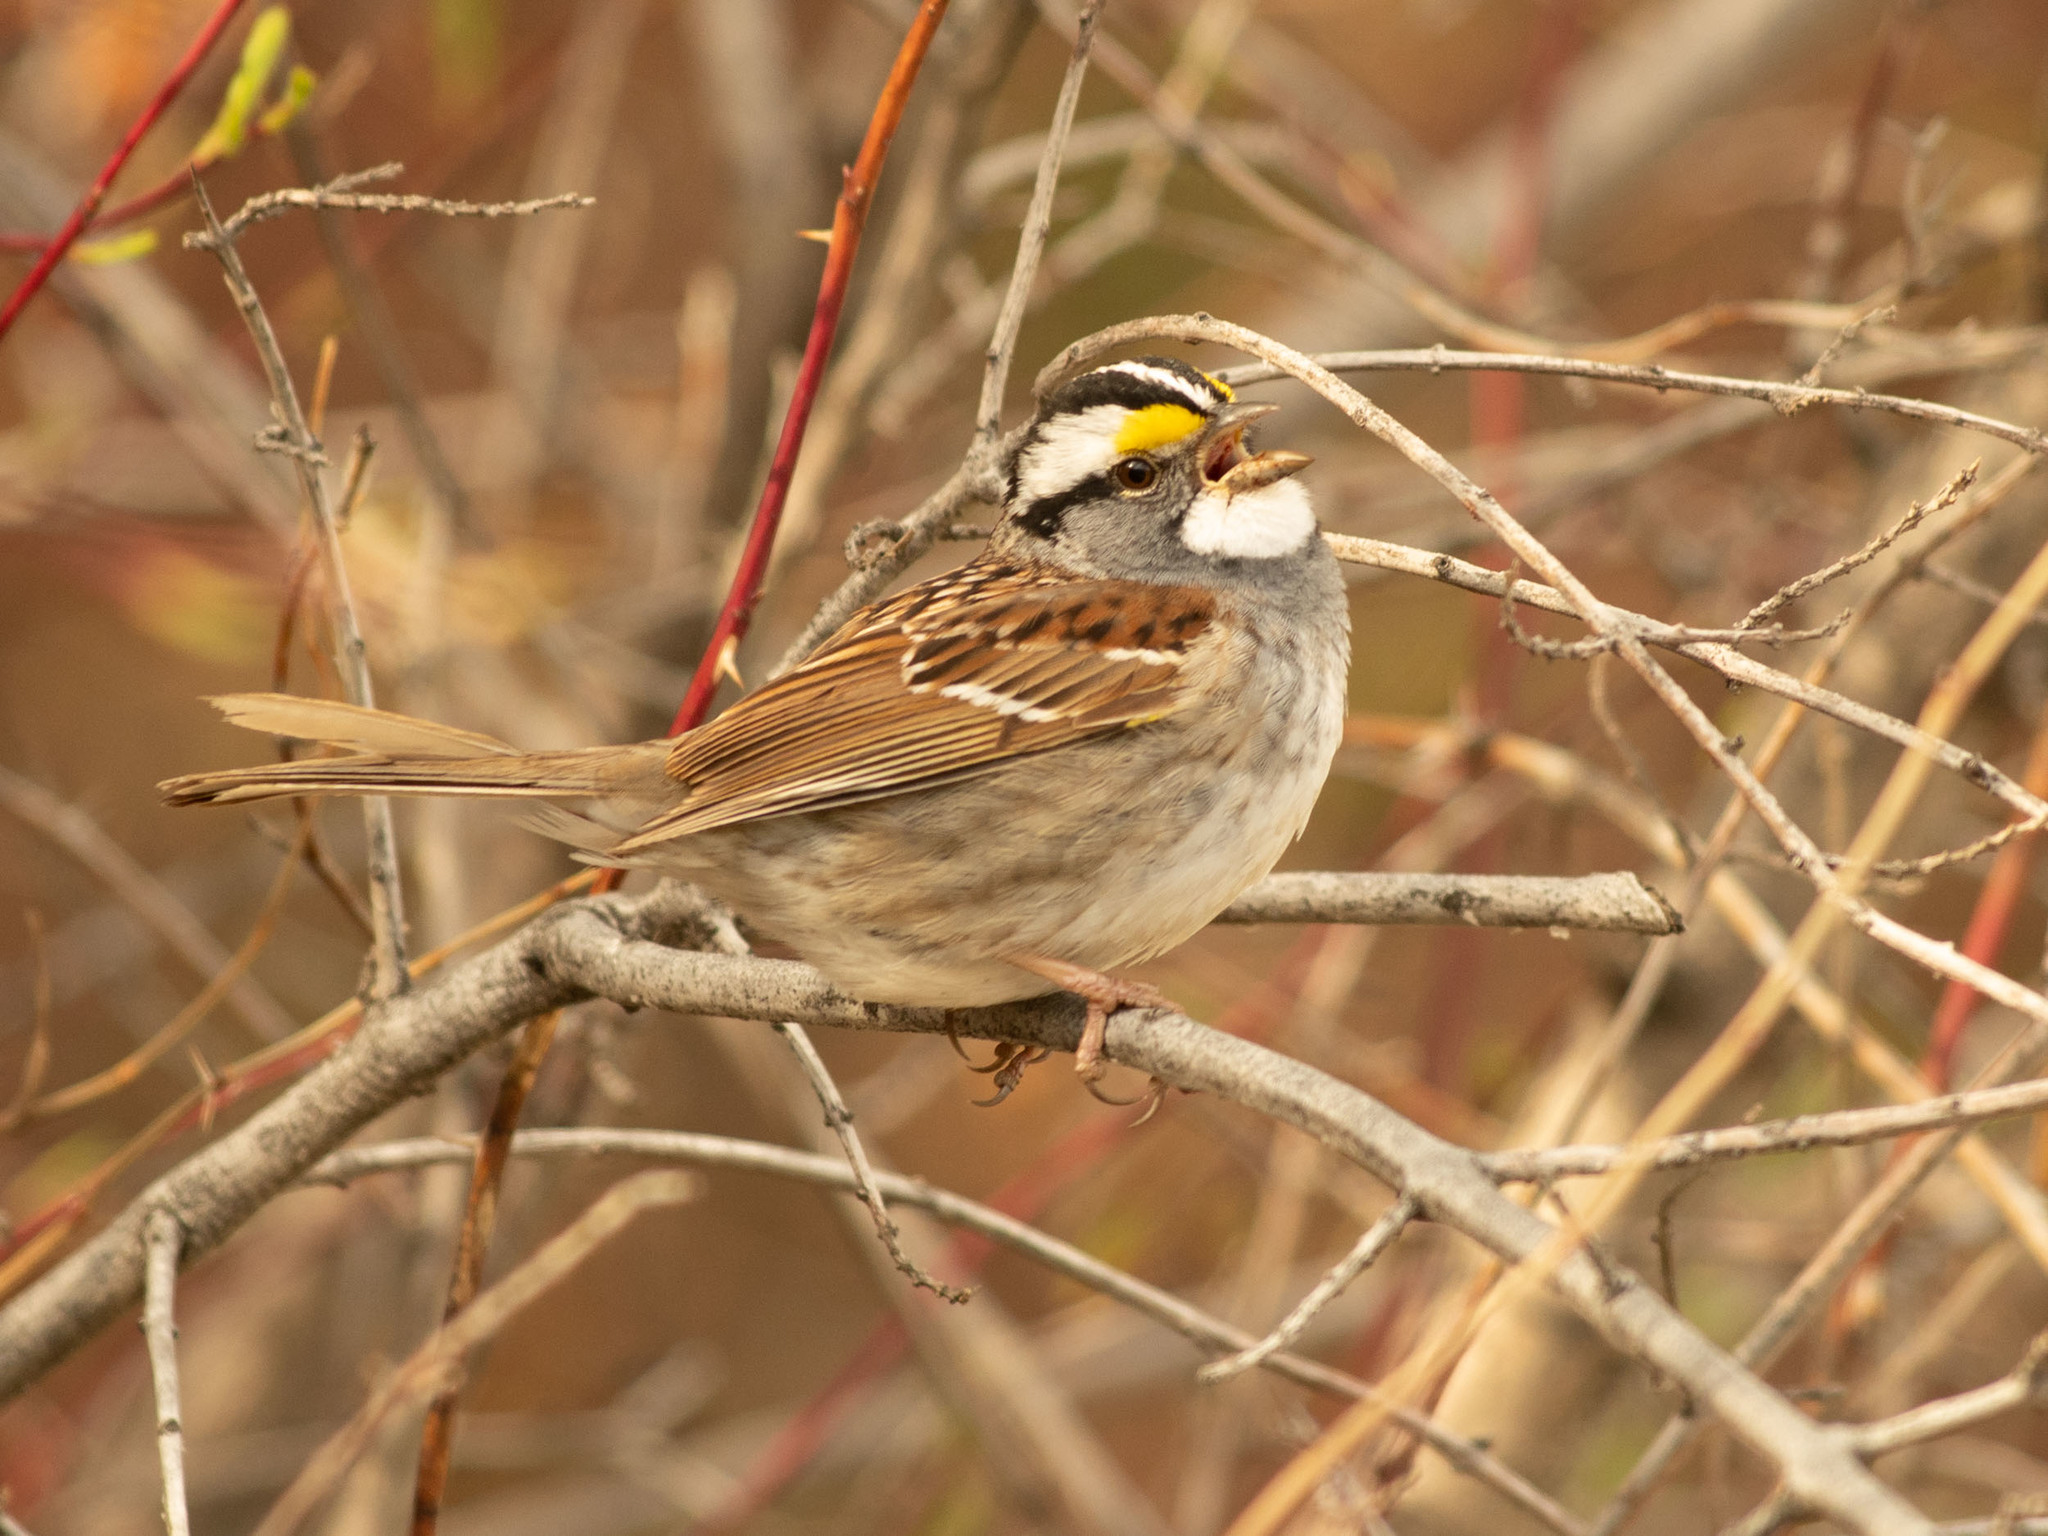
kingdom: Animalia
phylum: Chordata
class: Aves
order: Passeriformes
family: Passerellidae
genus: Zonotrichia
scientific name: Zonotrichia albicollis
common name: White-throated sparrow
